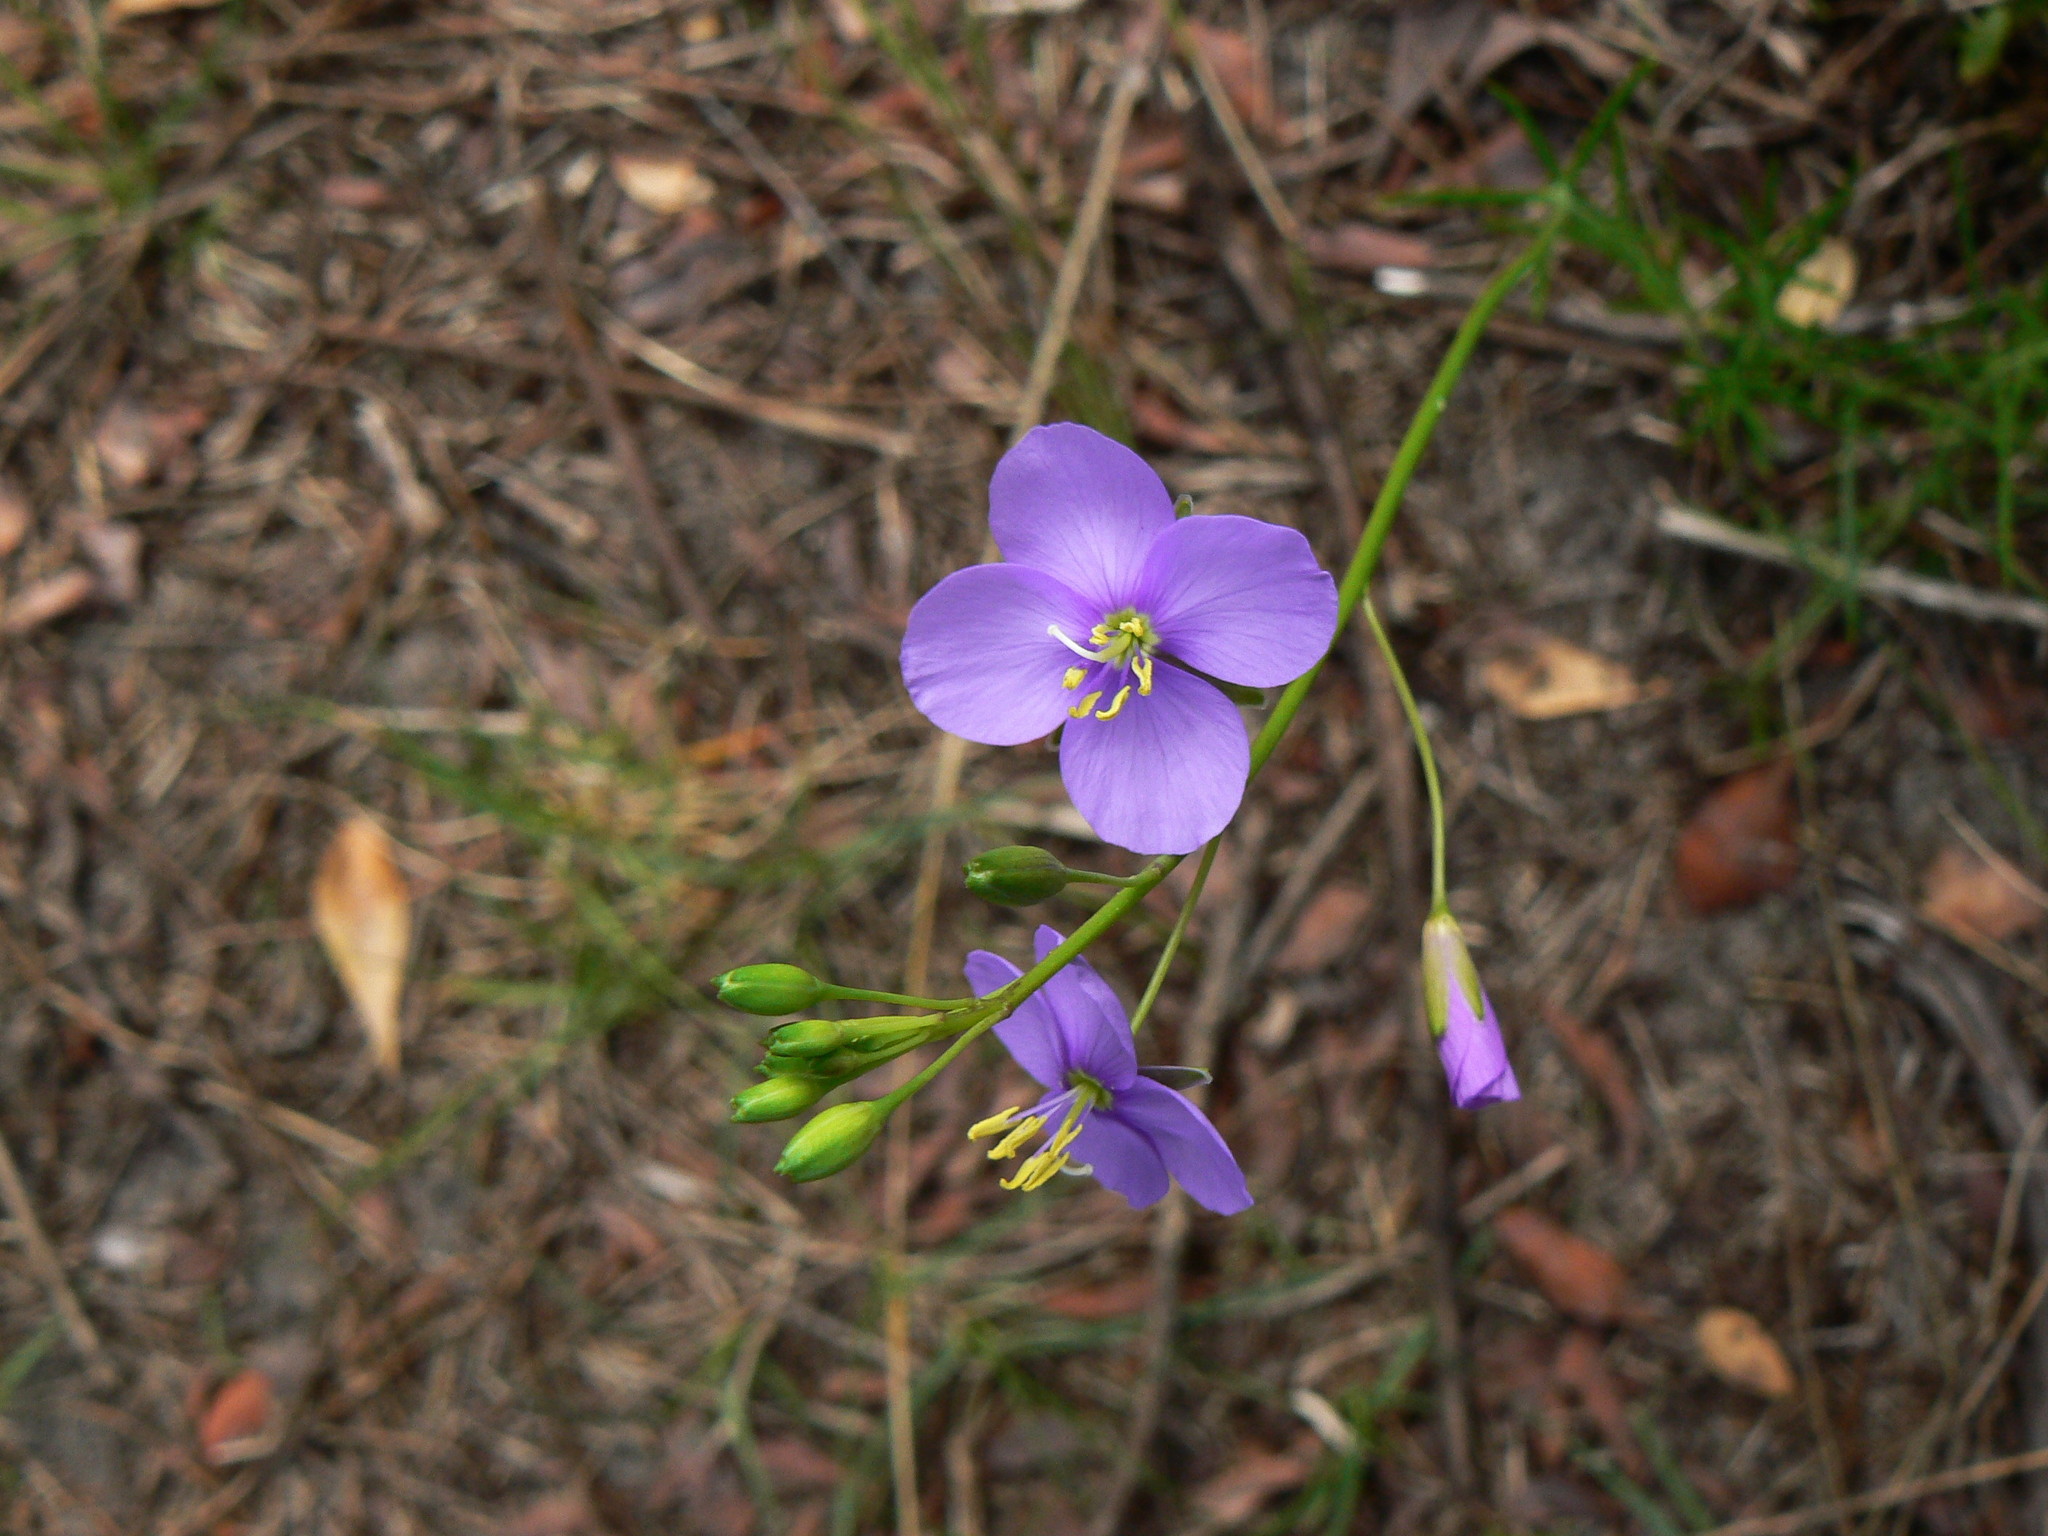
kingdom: Plantae
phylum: Tracheophyta
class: Magnoliopsida
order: Brassicales
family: Brassicaceae
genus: Heliophila
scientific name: Heliophila subulata
